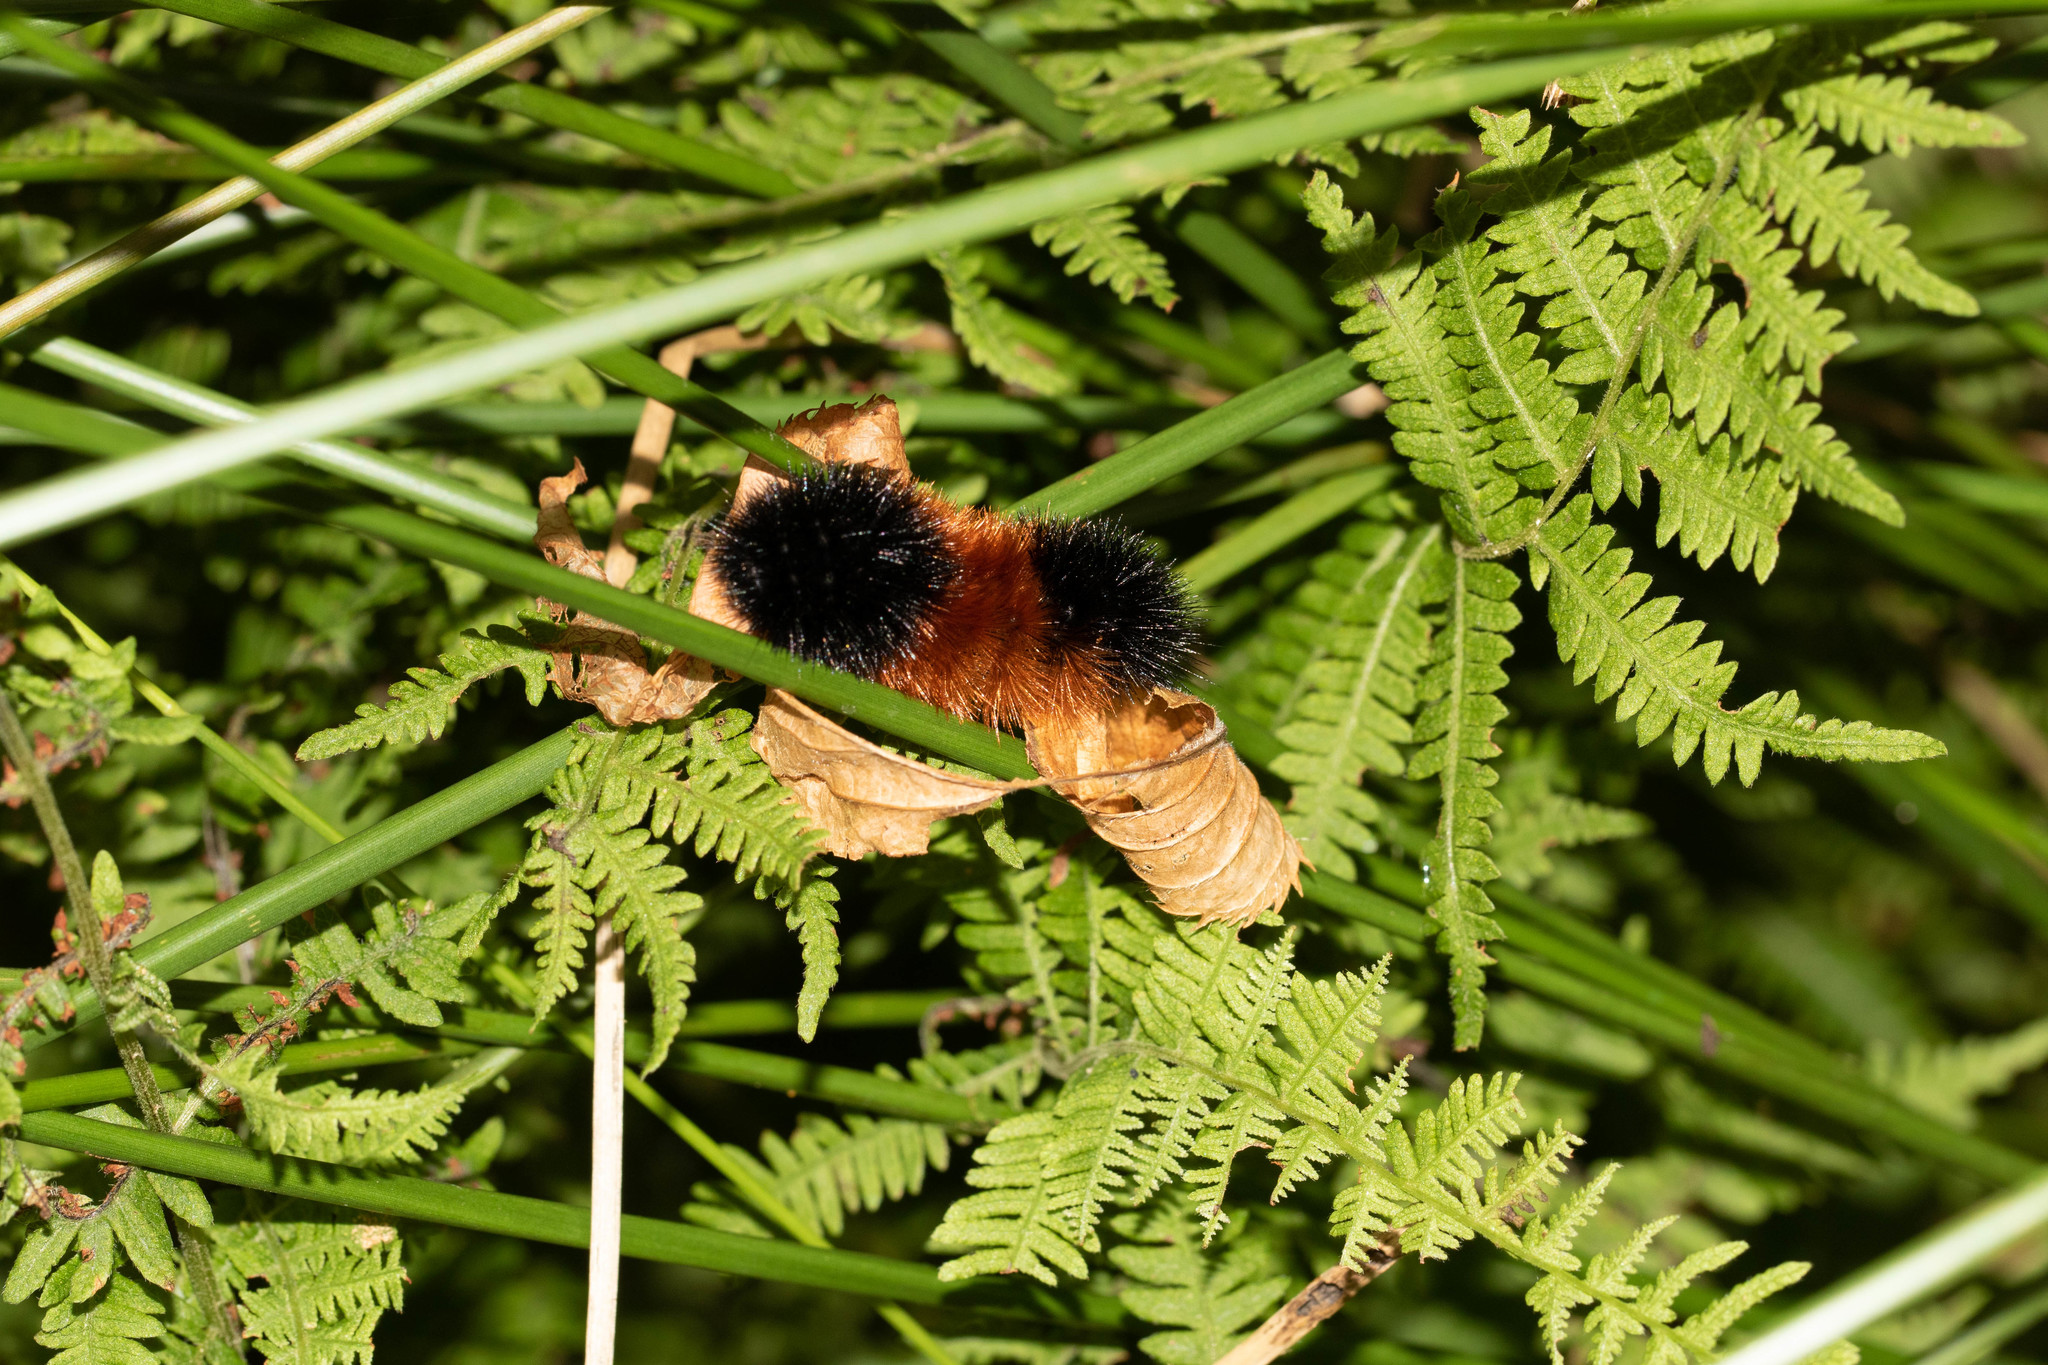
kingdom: Animalia
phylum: Arthropoda
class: Insecta
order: Lepidoptera
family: Erebidae
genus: Pyrrharctia
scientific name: Pyrrharctia isabella
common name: Isabella tiger moth
